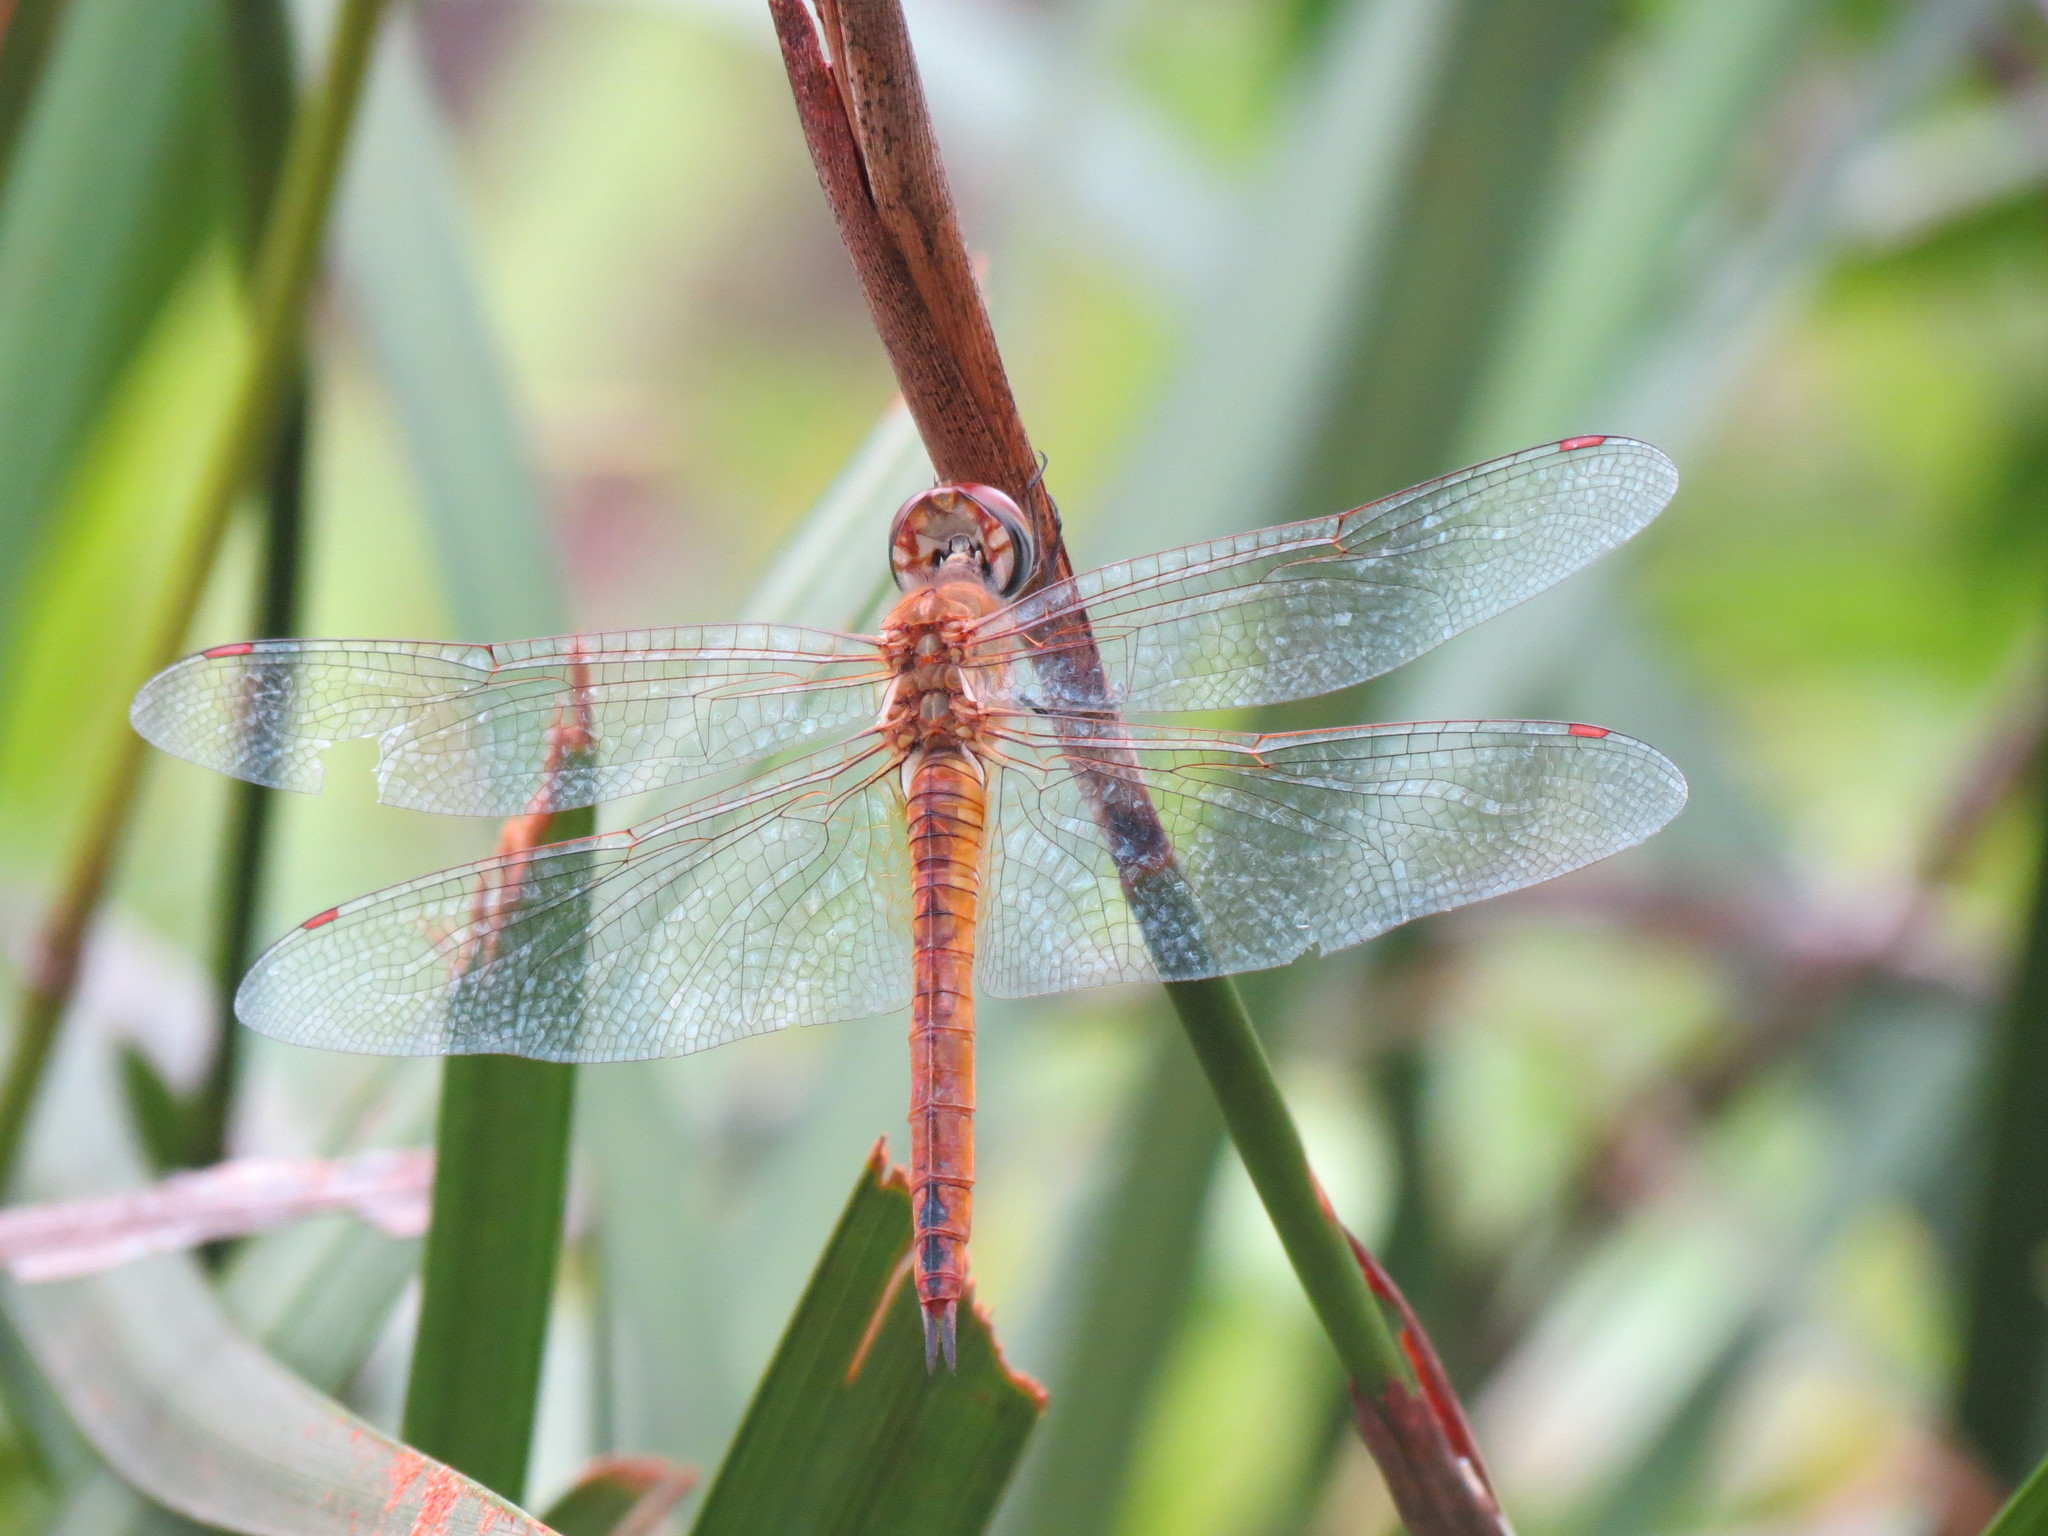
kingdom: Animalia
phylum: Arthropoda
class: Insecta
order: Odonata
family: Libellulidae
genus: Pantala
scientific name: Pantala flavescens
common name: Wandering glider
